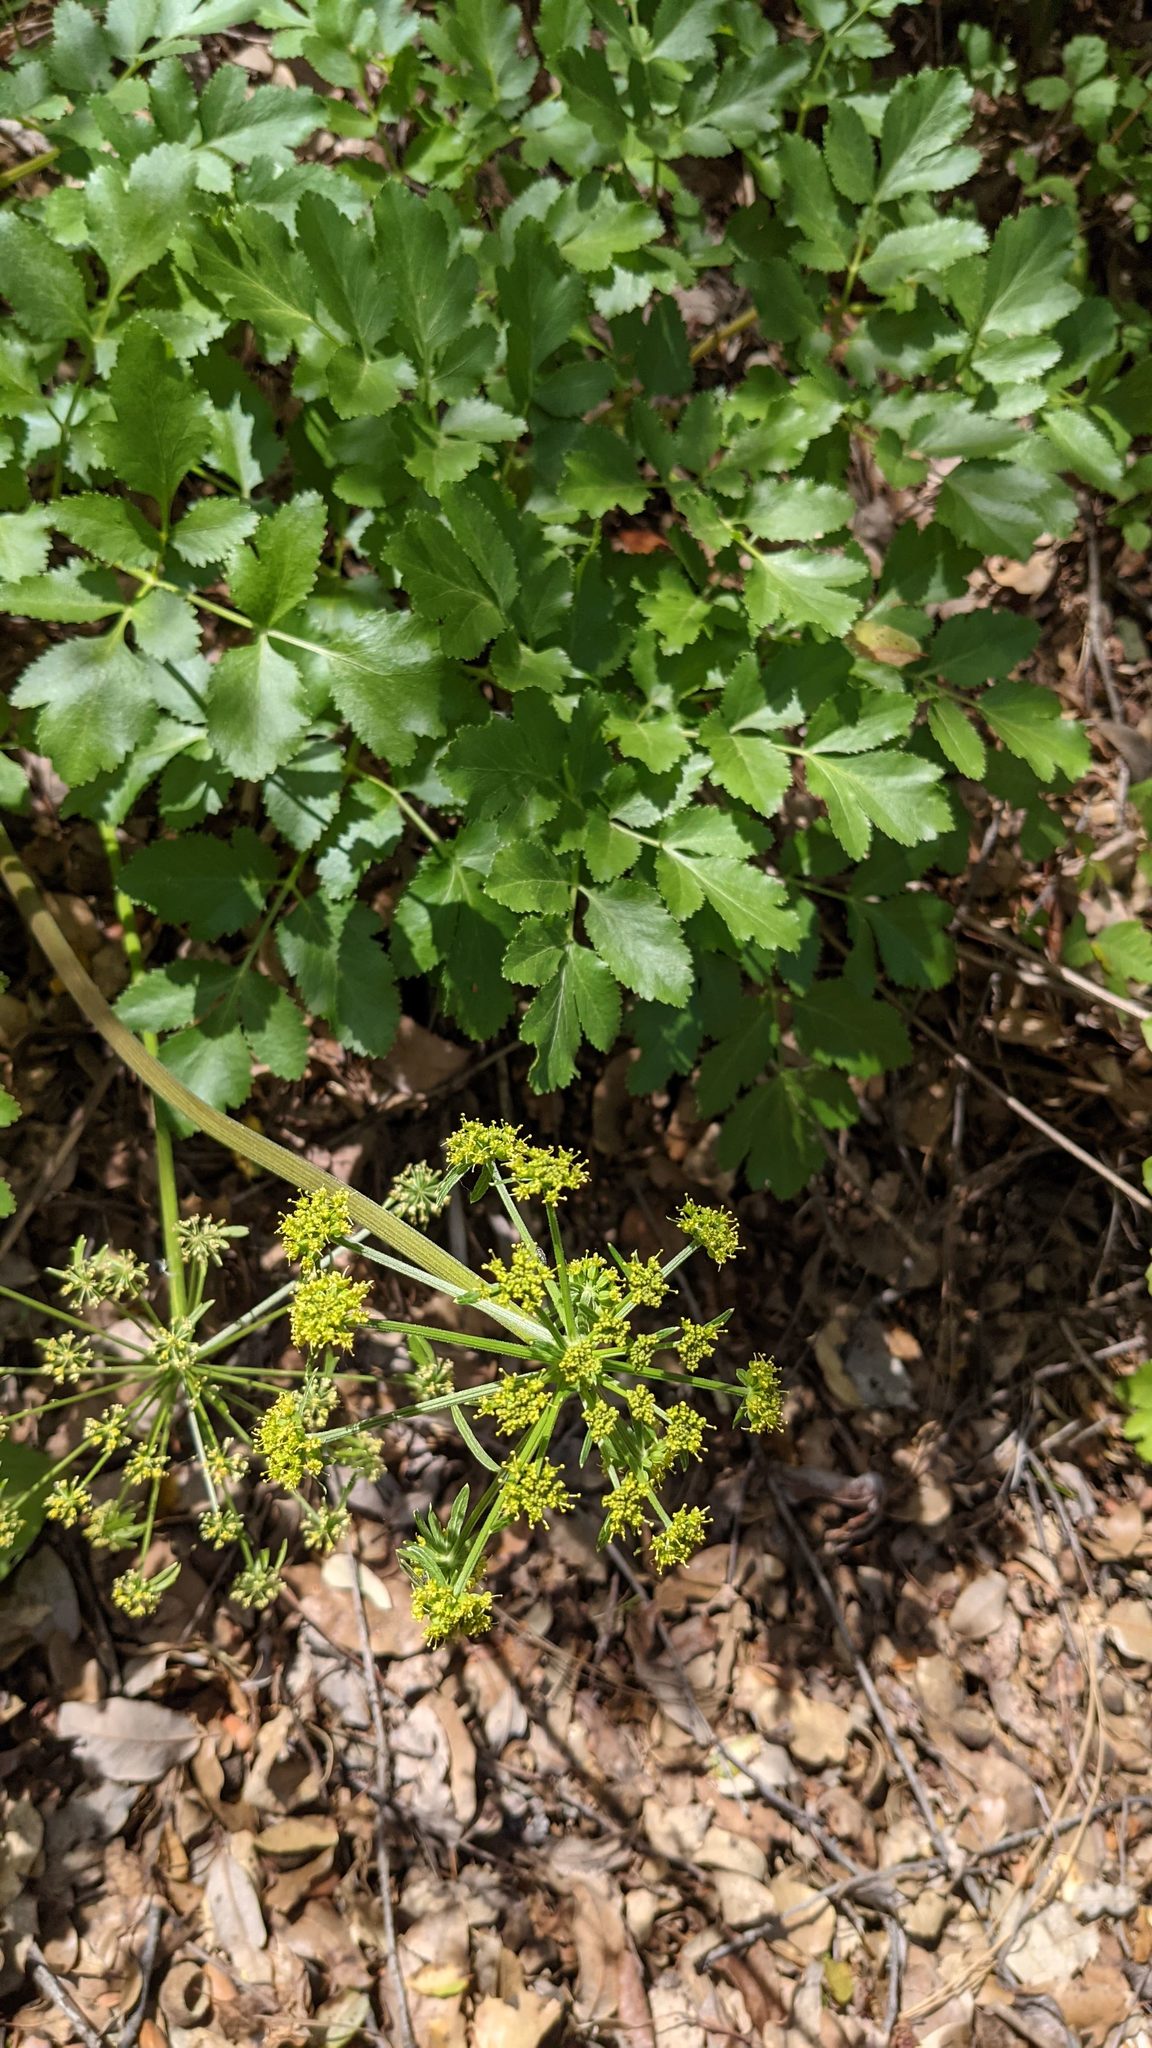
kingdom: Plantae
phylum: Tracheophyta
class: Magnoliopsida
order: Apiales
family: Apiaceae
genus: Tauschia
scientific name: Tauschia hartwegii
